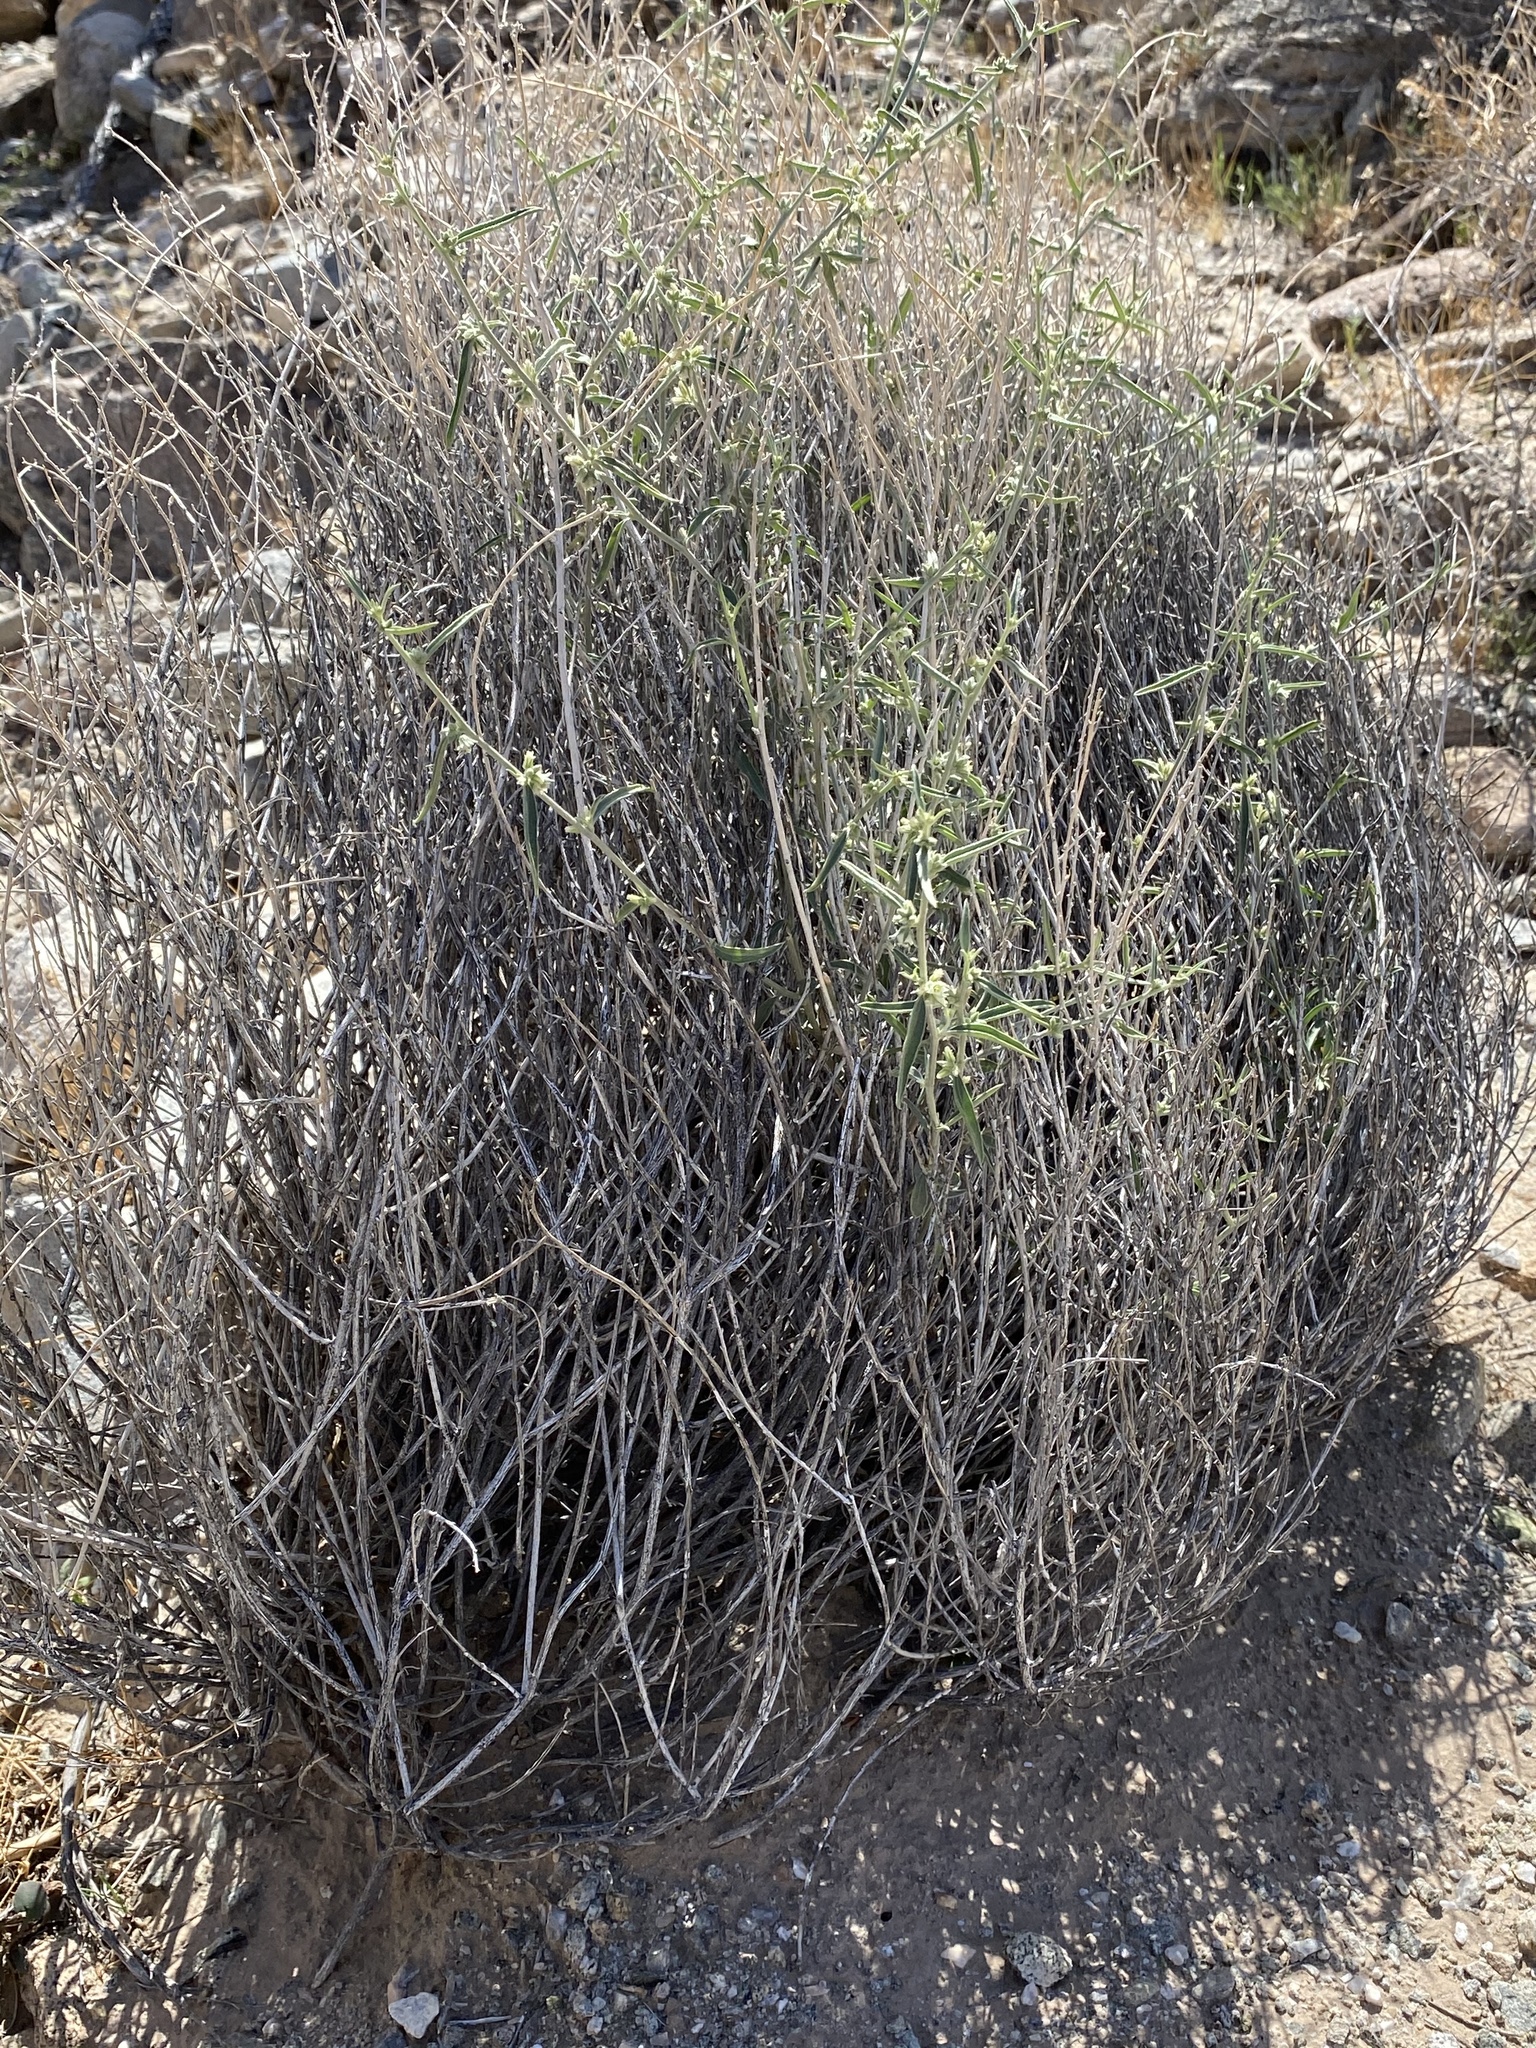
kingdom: Plantae
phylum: Tracheophyta
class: Magnoliopsida
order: Malpighiales
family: Euphorbiaceae
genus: Ditaxis
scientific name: Ditaxis lanceolata
